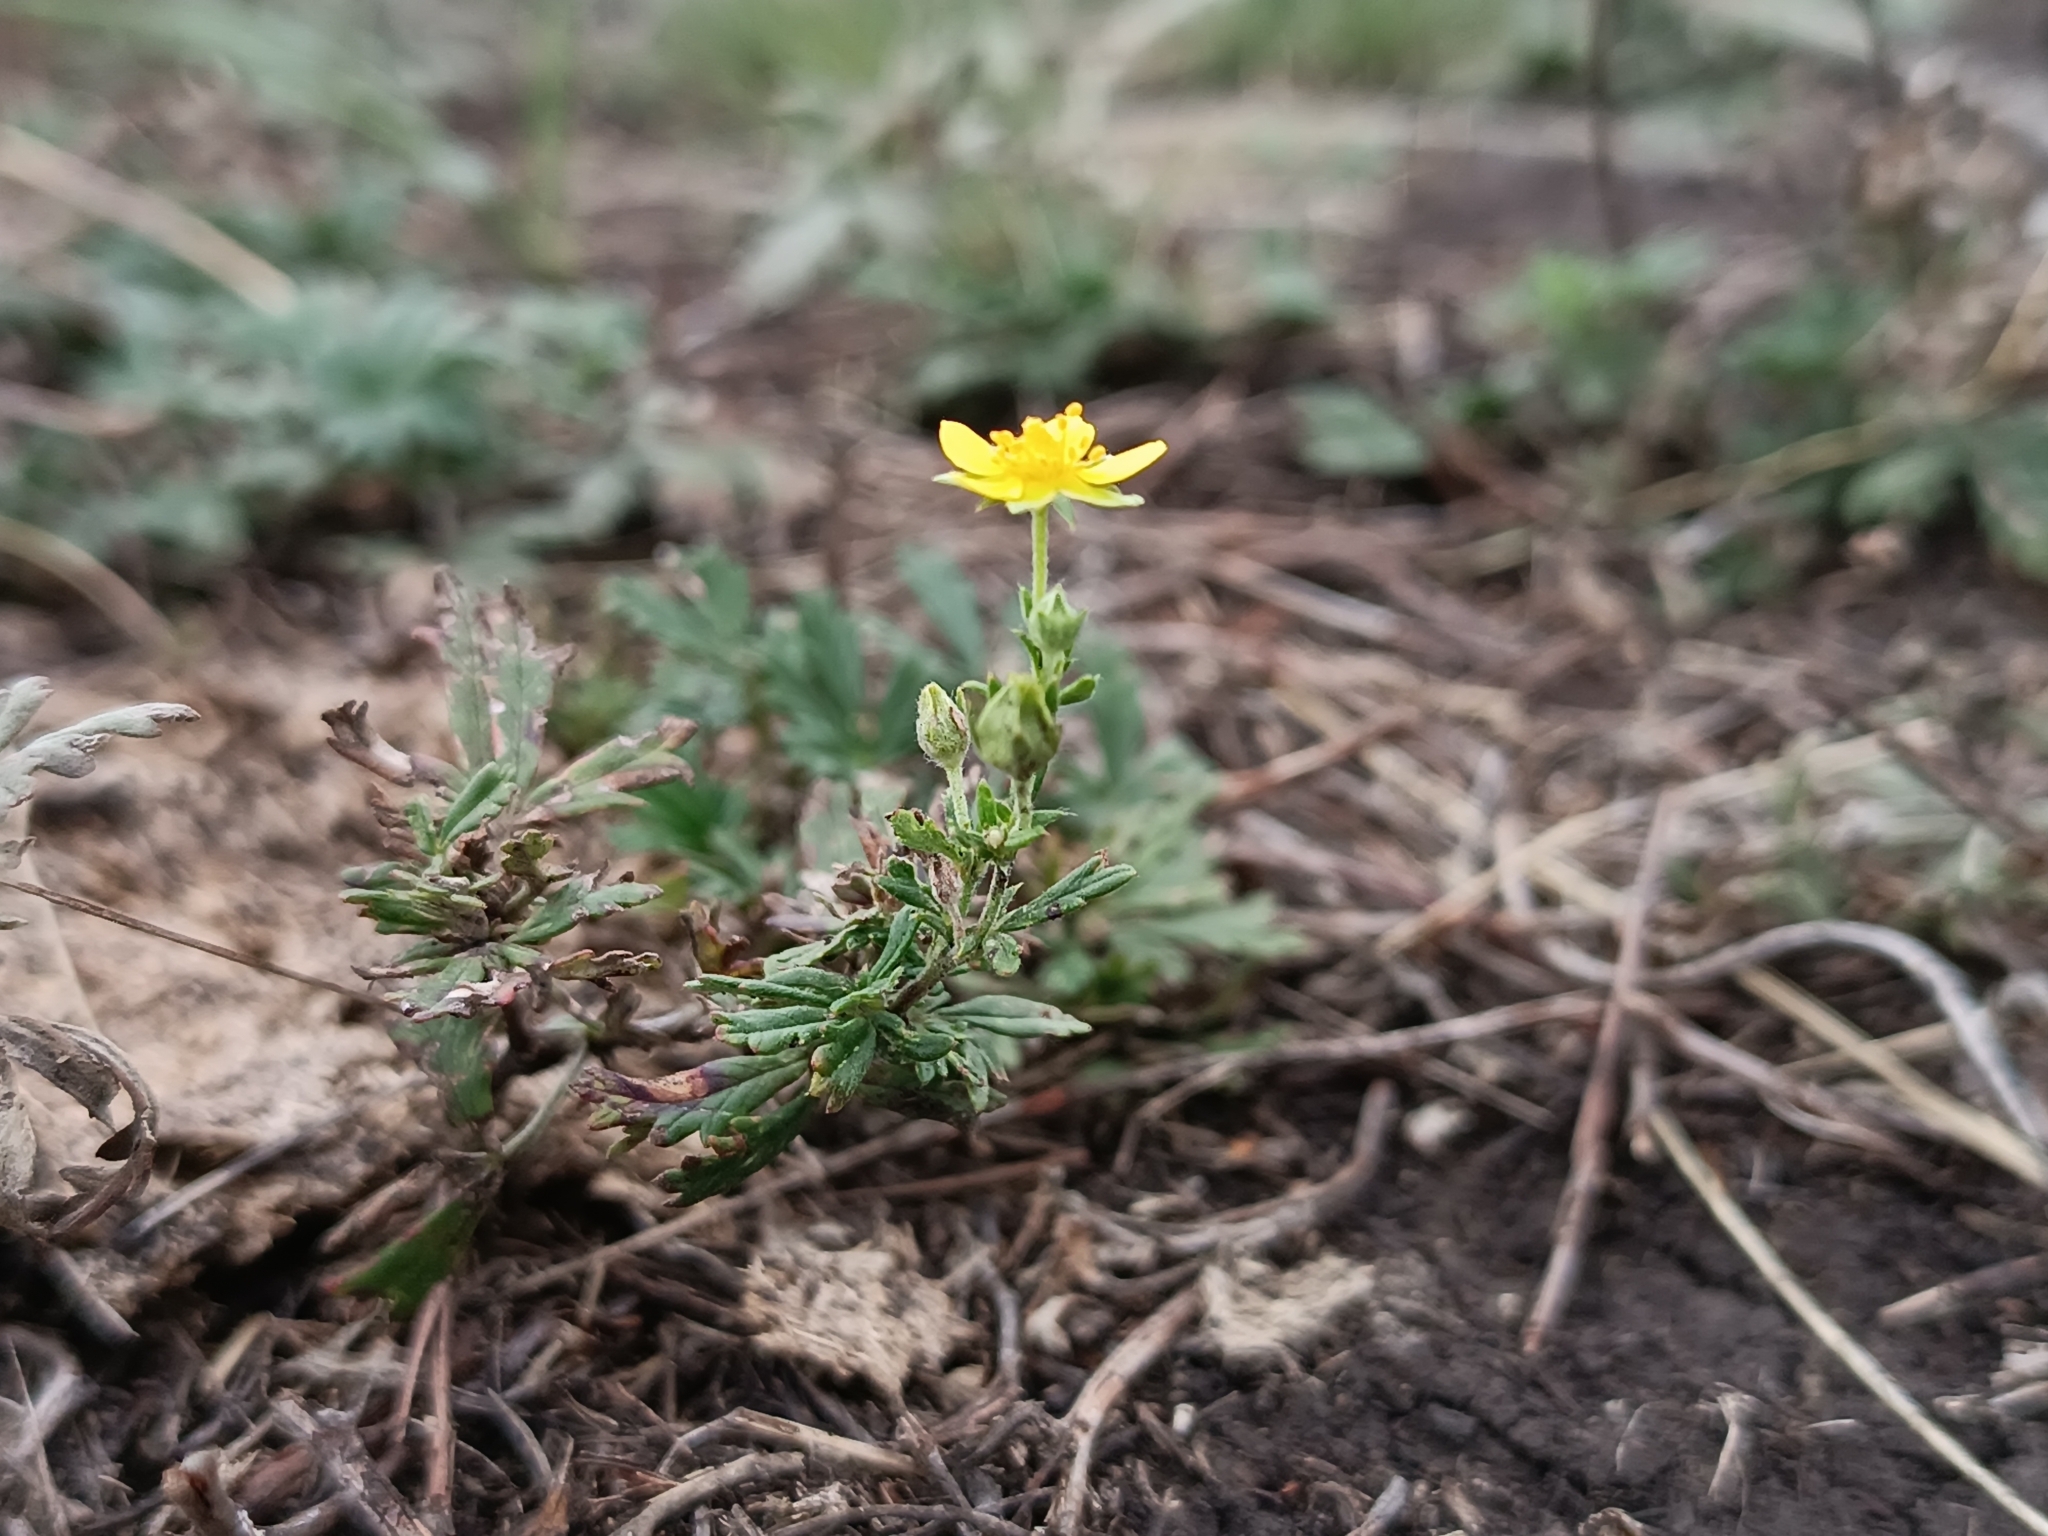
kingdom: Plantae
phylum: Tracheophyta
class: Magnoliopsida
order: Rosales
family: Rosaceae
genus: Potentilla
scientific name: Potentilla argentea
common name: Hoary cinquefoil
